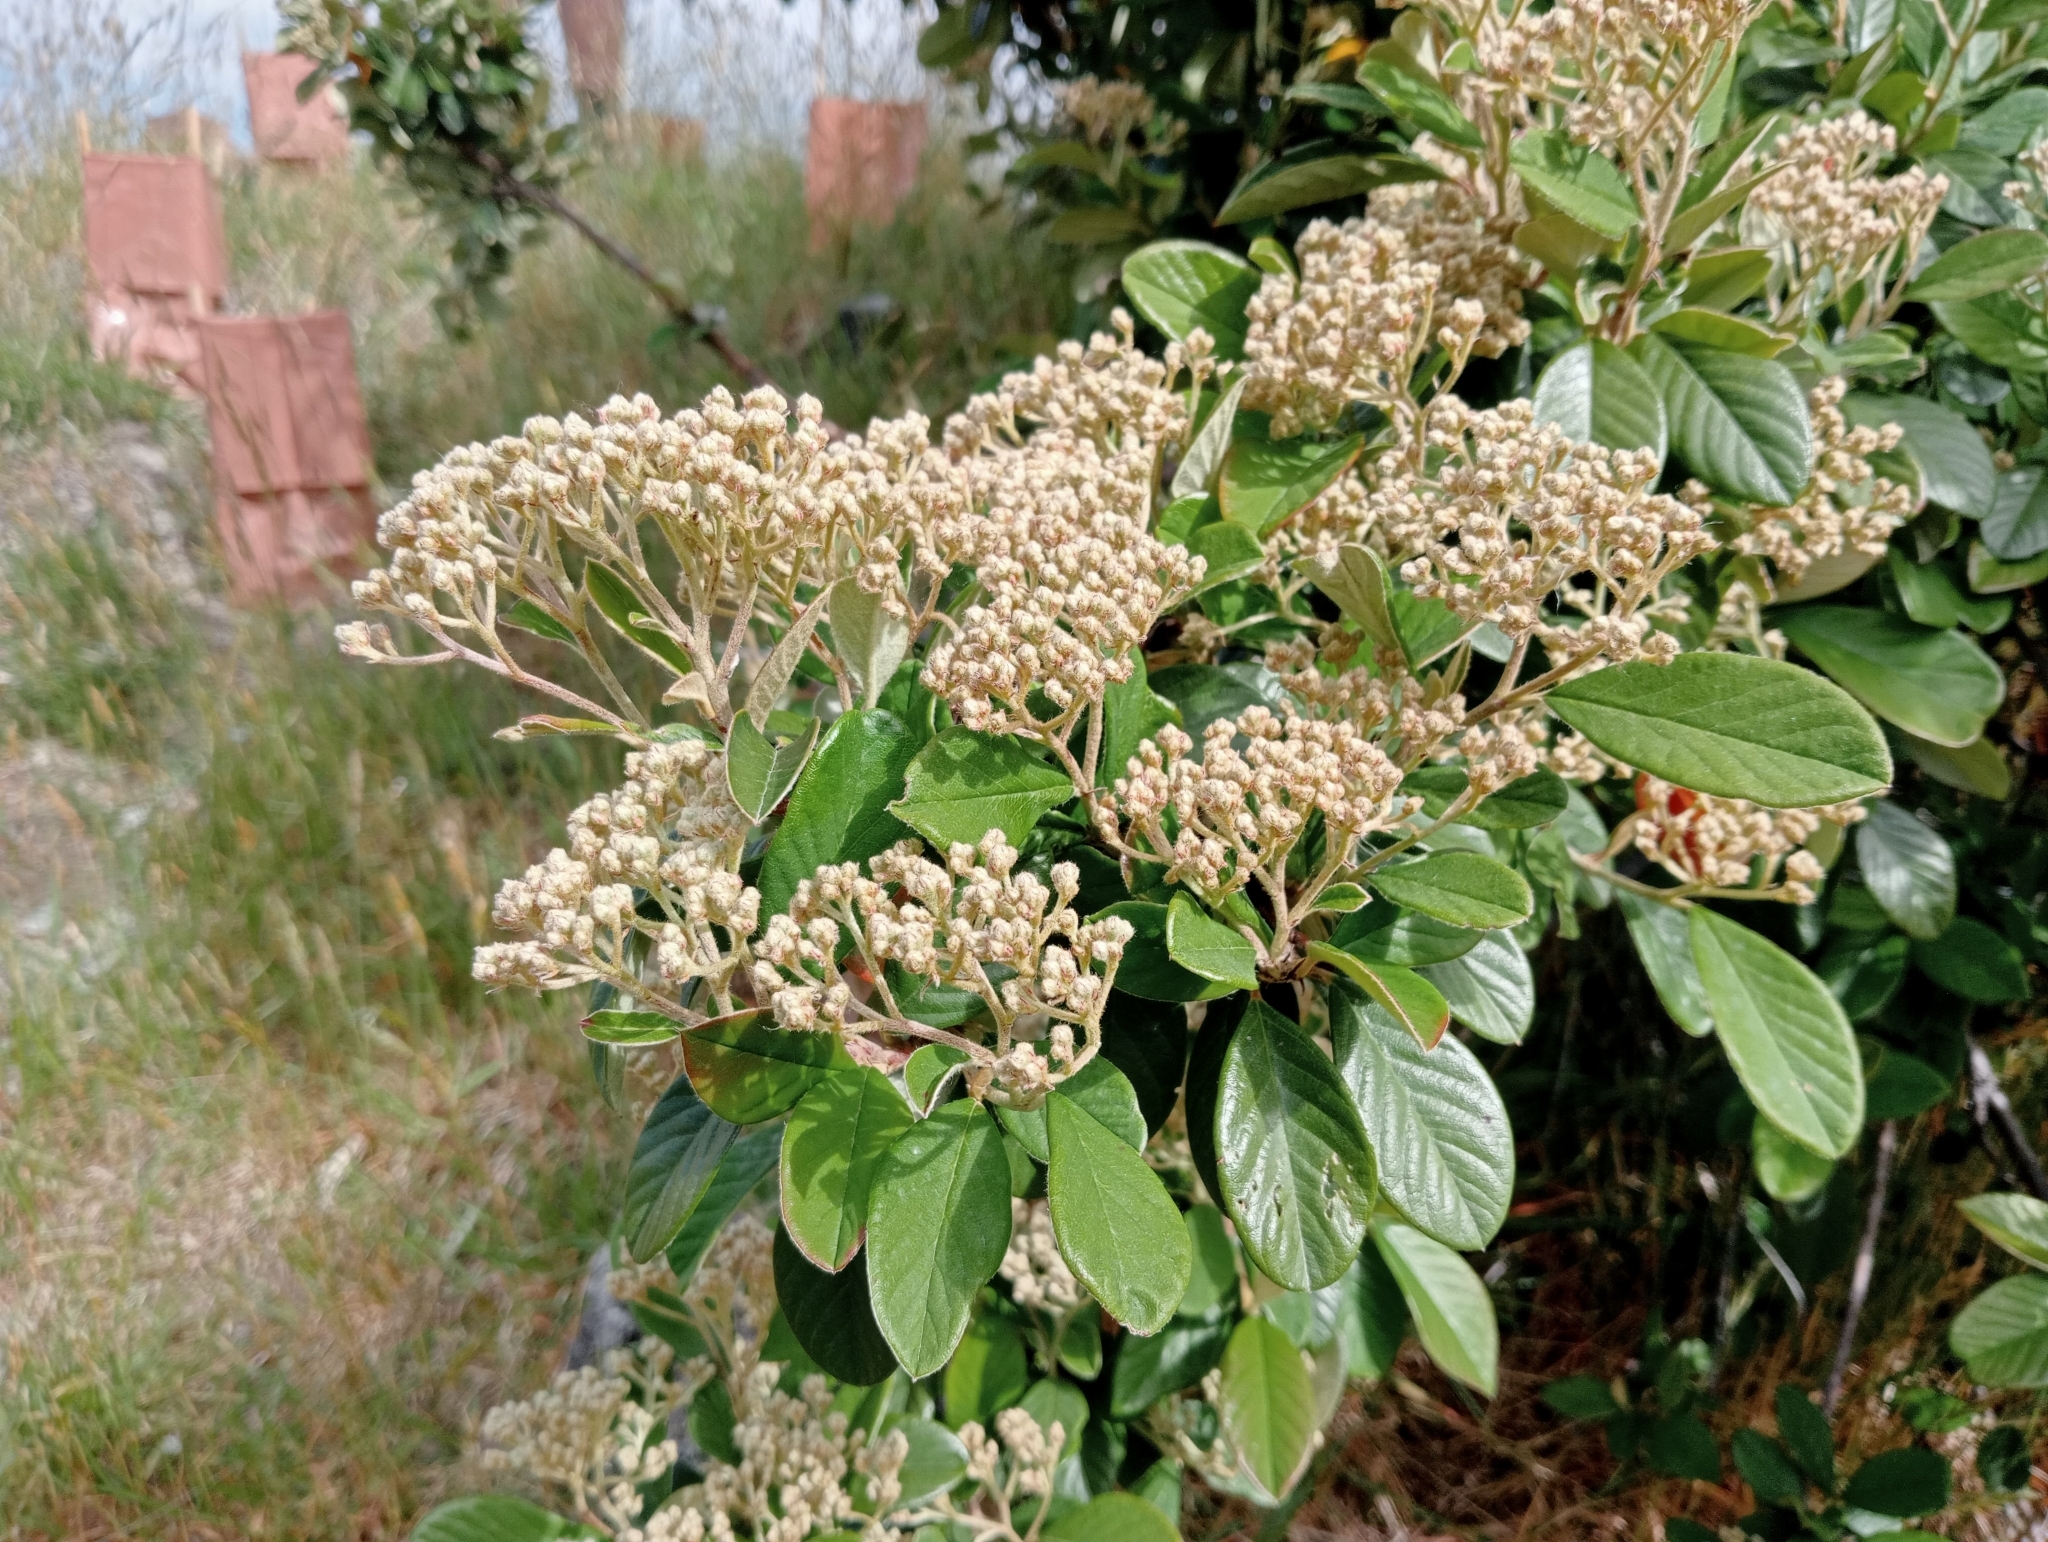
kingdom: Plantae
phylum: Tracheophyta
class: Magnoliopsida
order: Rosales
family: Rosaceae
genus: Cotoneaster
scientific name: Cotoneaster coriaceus
